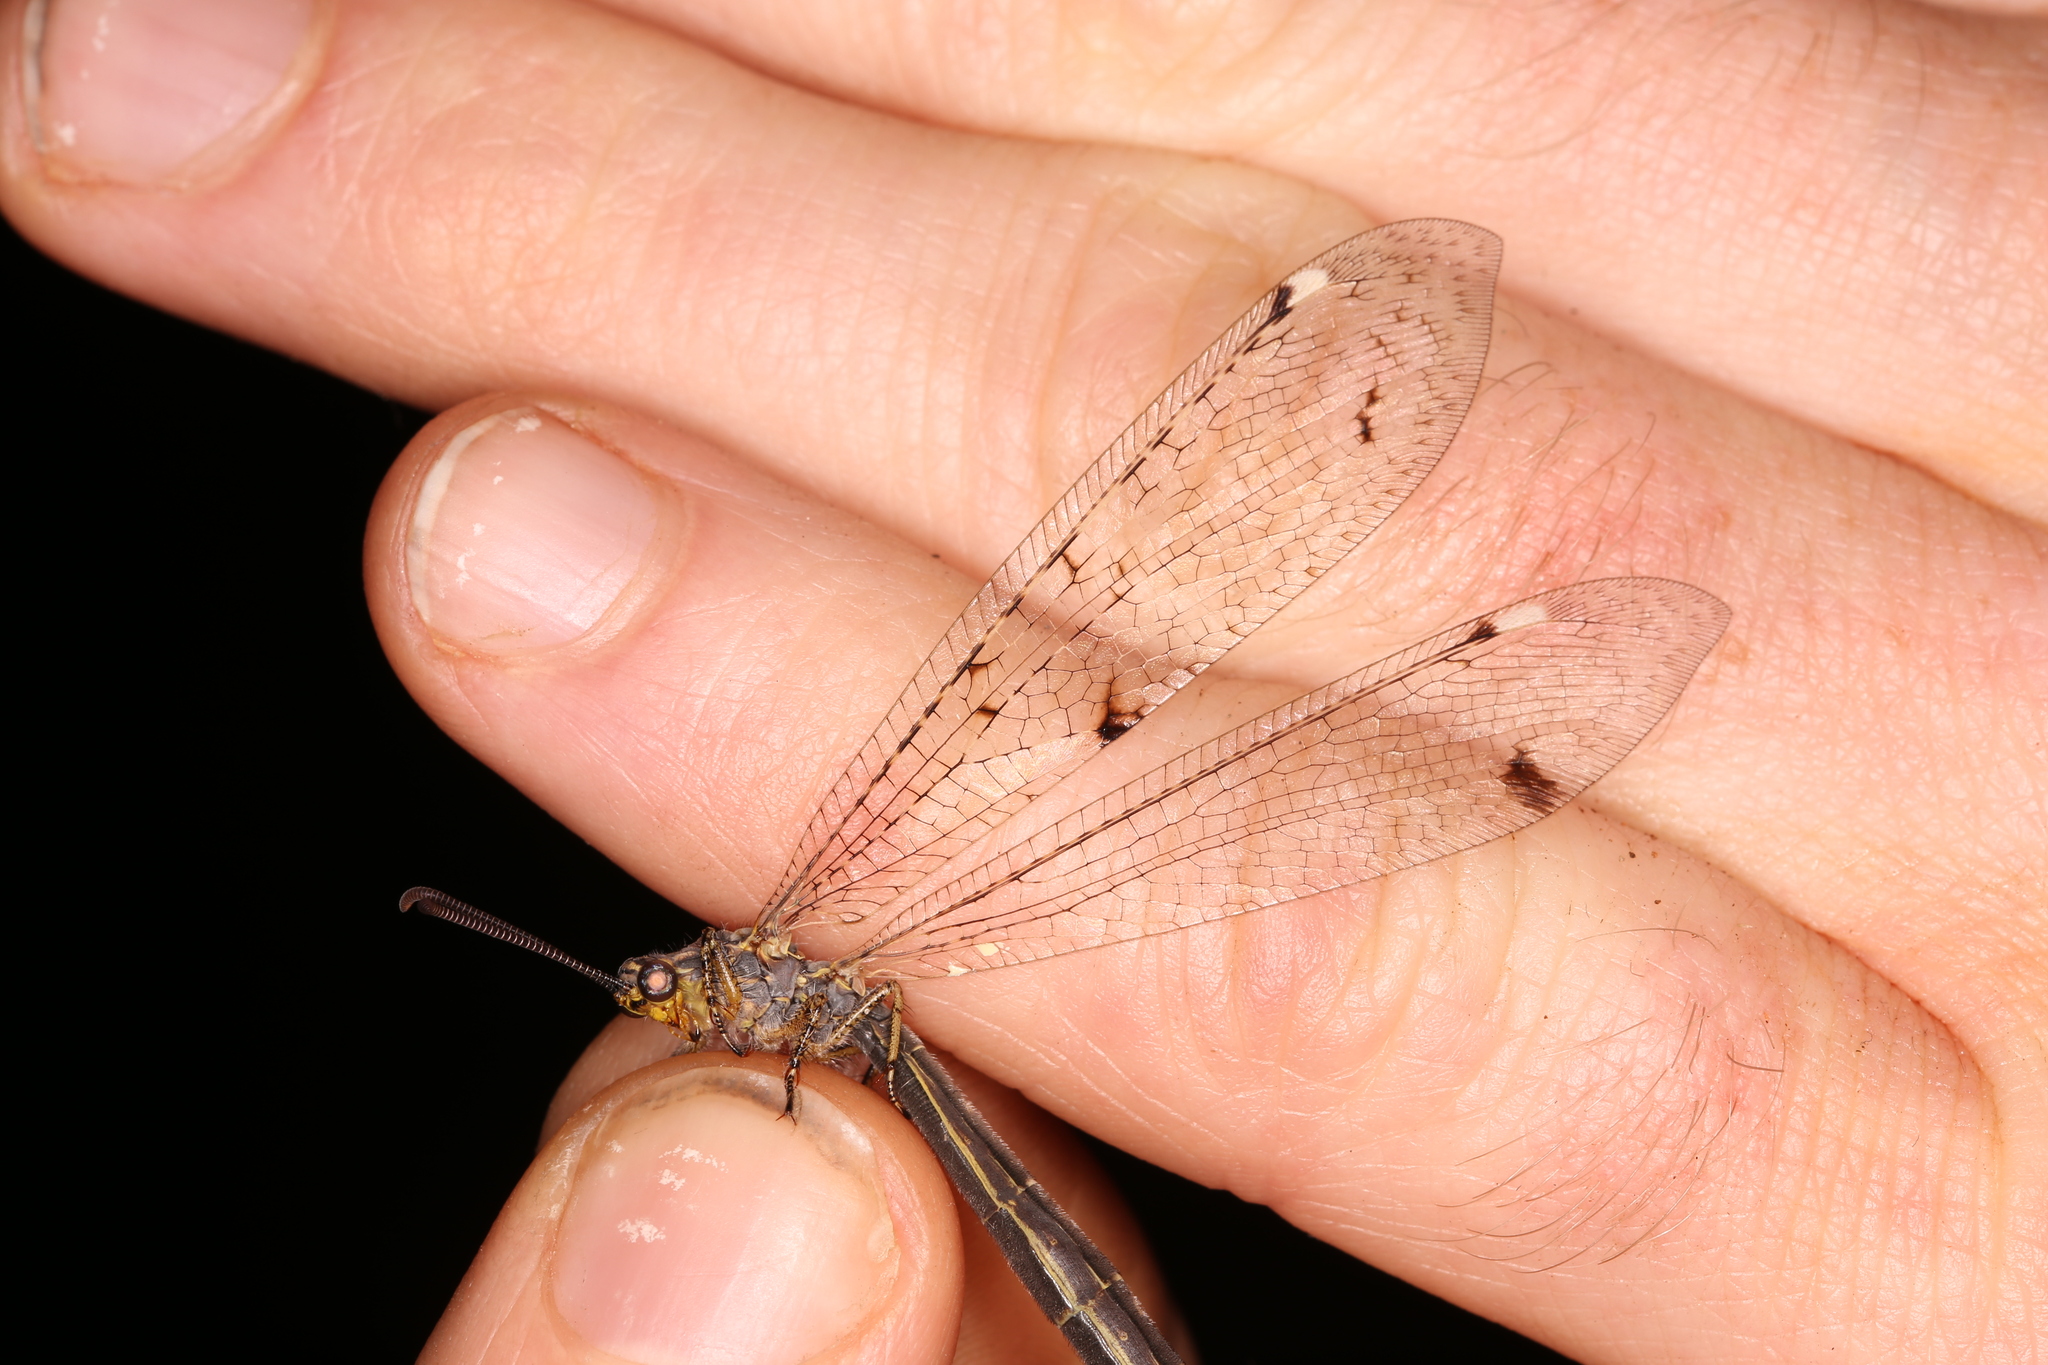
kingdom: Animalia
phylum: Arthropoda
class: Insecta
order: Neuroptera
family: Myrmeleontidae
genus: Distoleon
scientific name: Distoleon tetragrammicus
